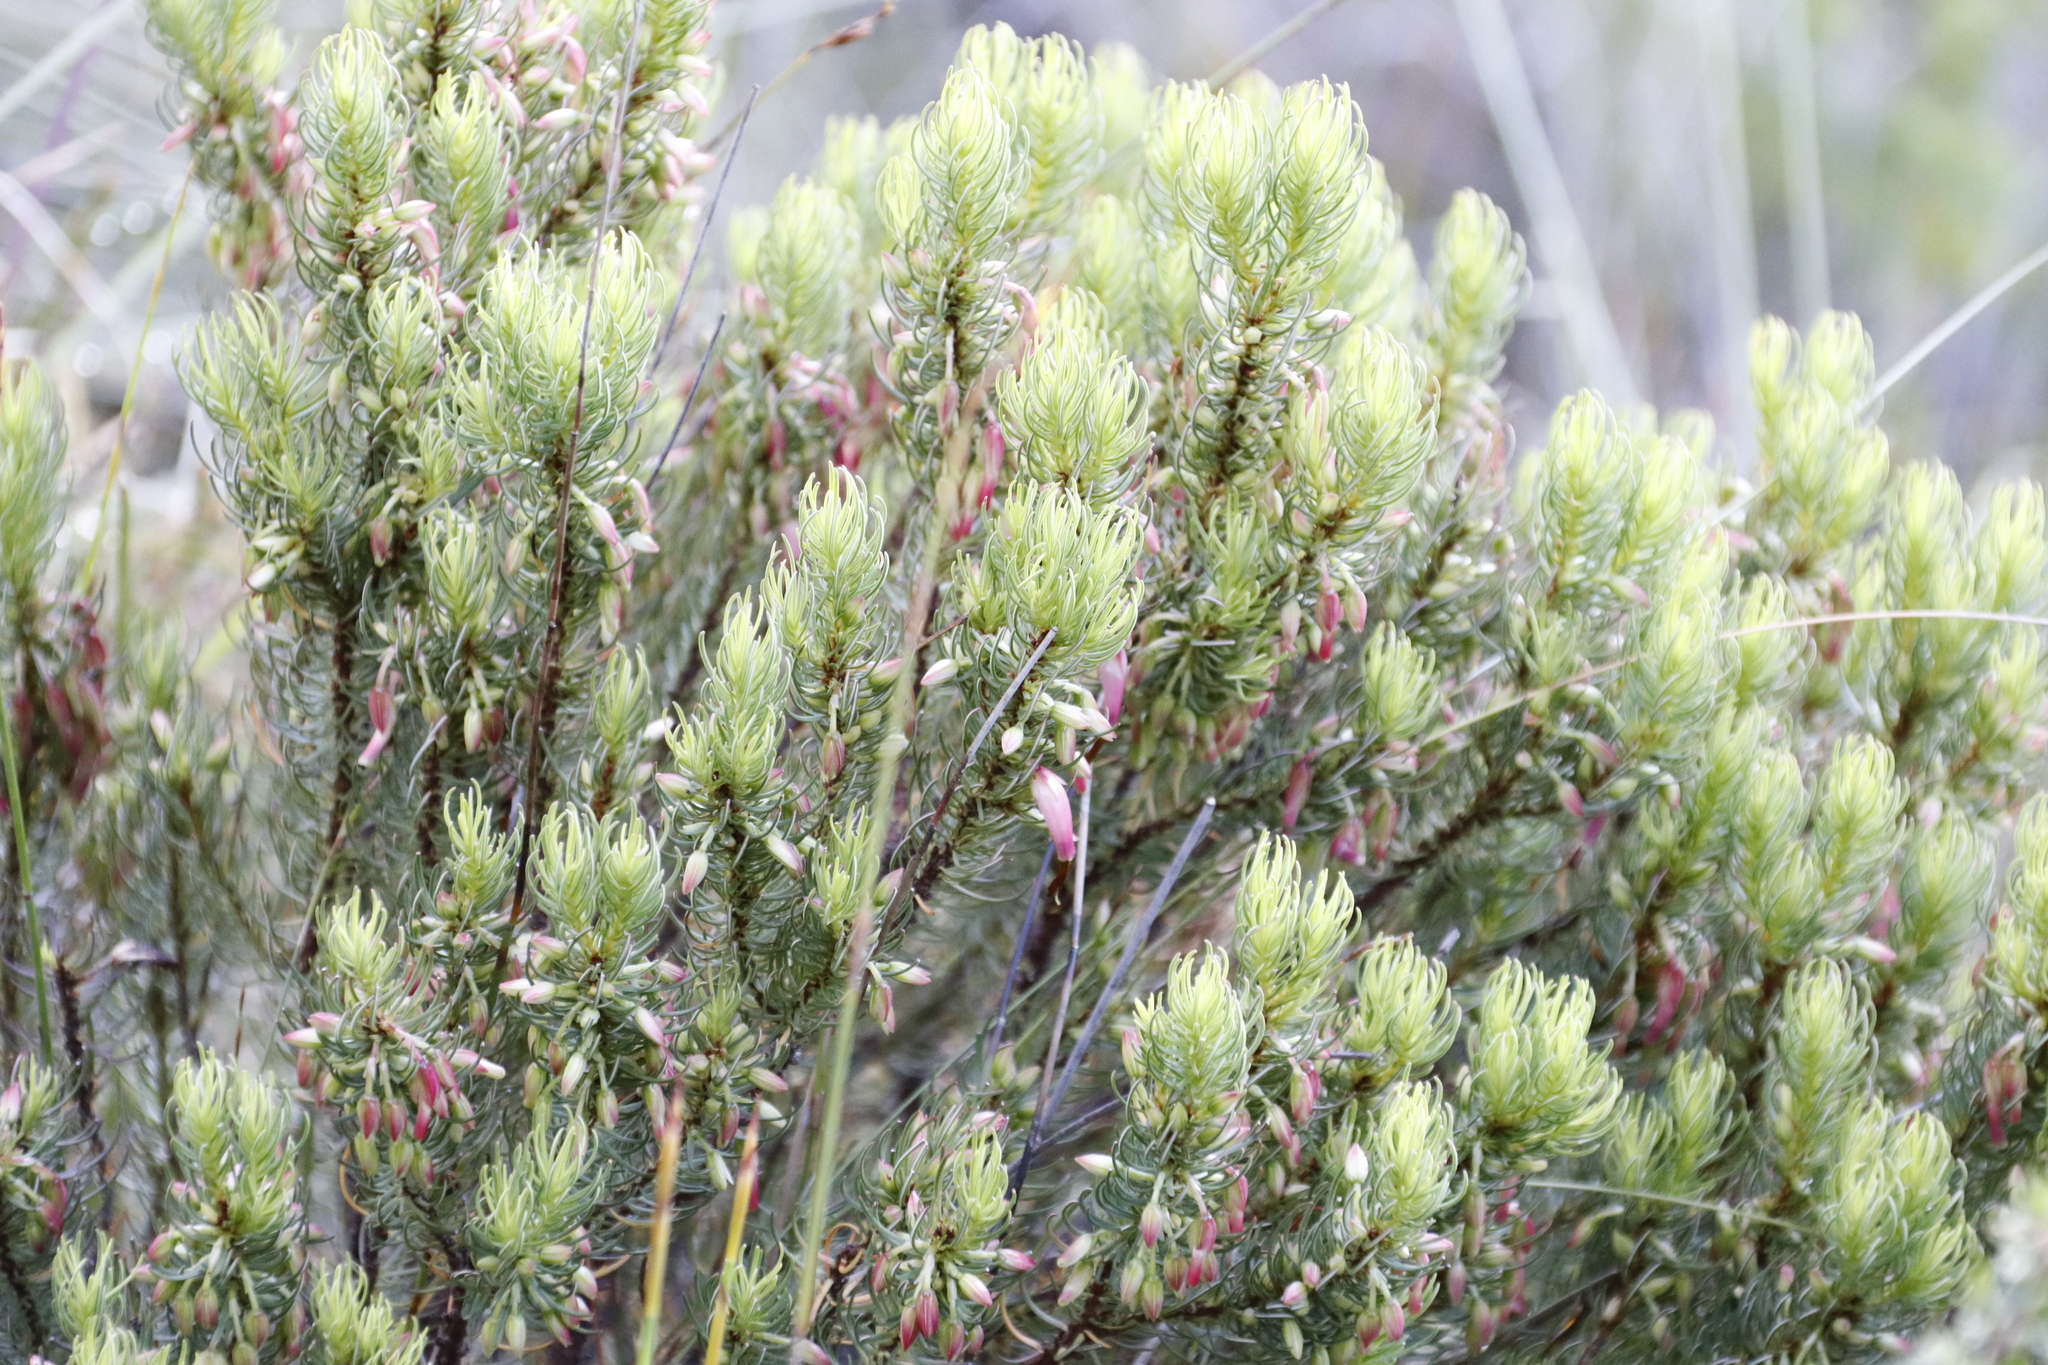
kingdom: Plantae
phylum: Tracheophyta
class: Magnoliopsida
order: Ericales
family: Ericaceae
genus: Erica
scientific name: Erica plukenetii
